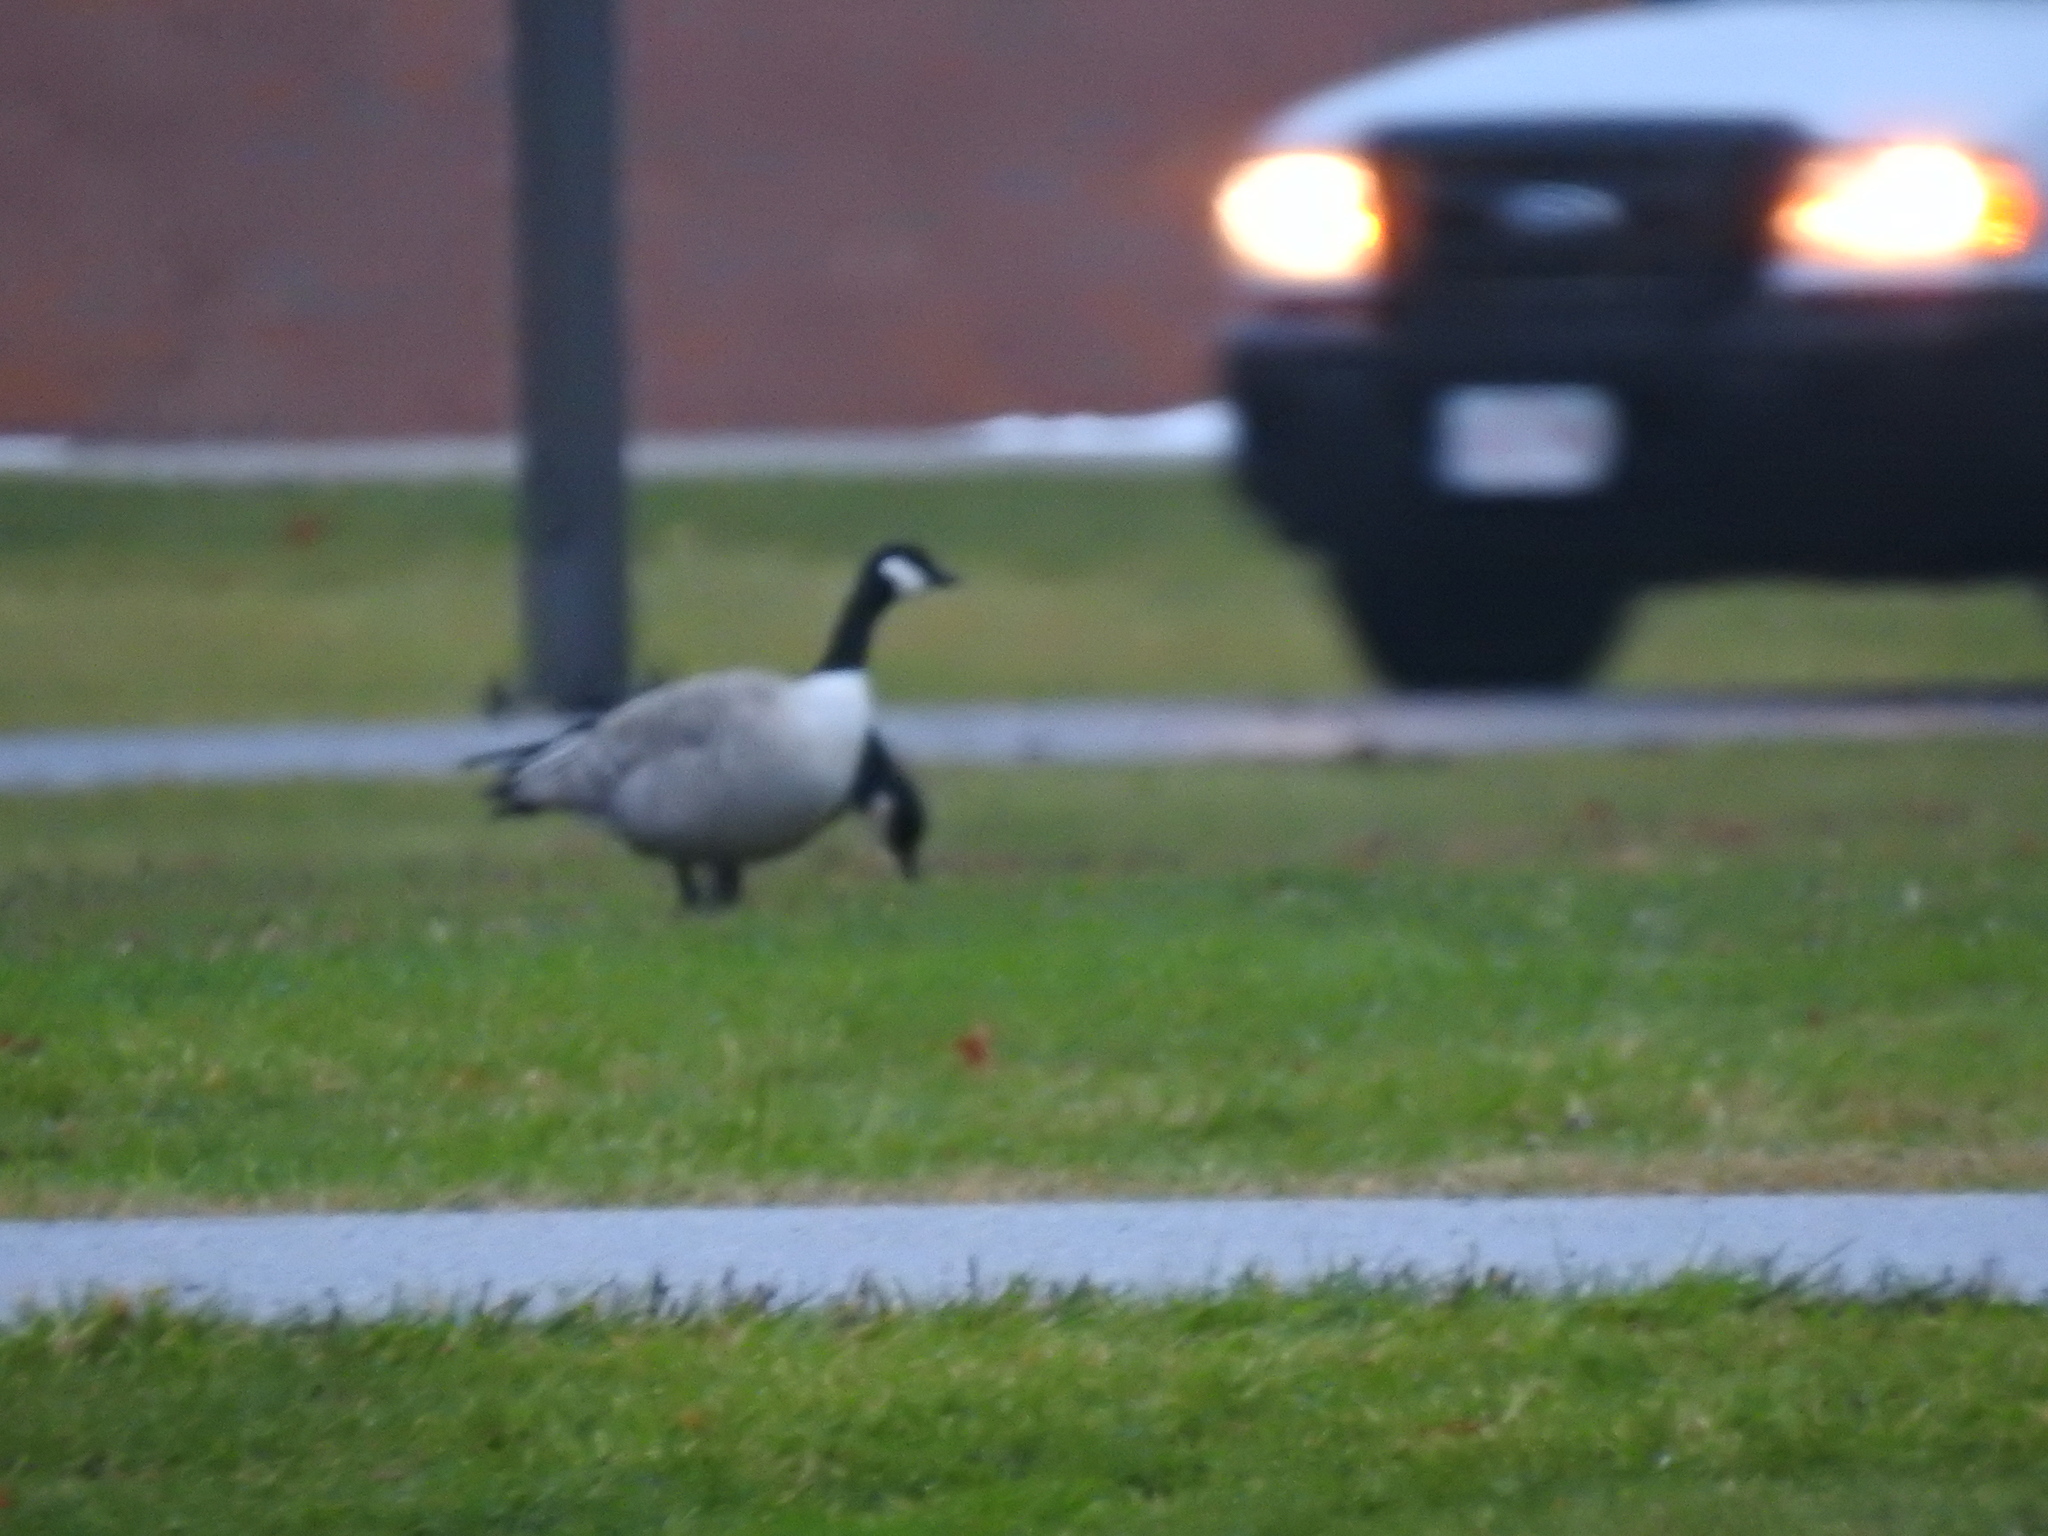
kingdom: Animalia
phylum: Chordata
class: Aves
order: Anseriformes
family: Anatidae
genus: Branta
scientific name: Branta hutchinsii
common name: Cackling goose
